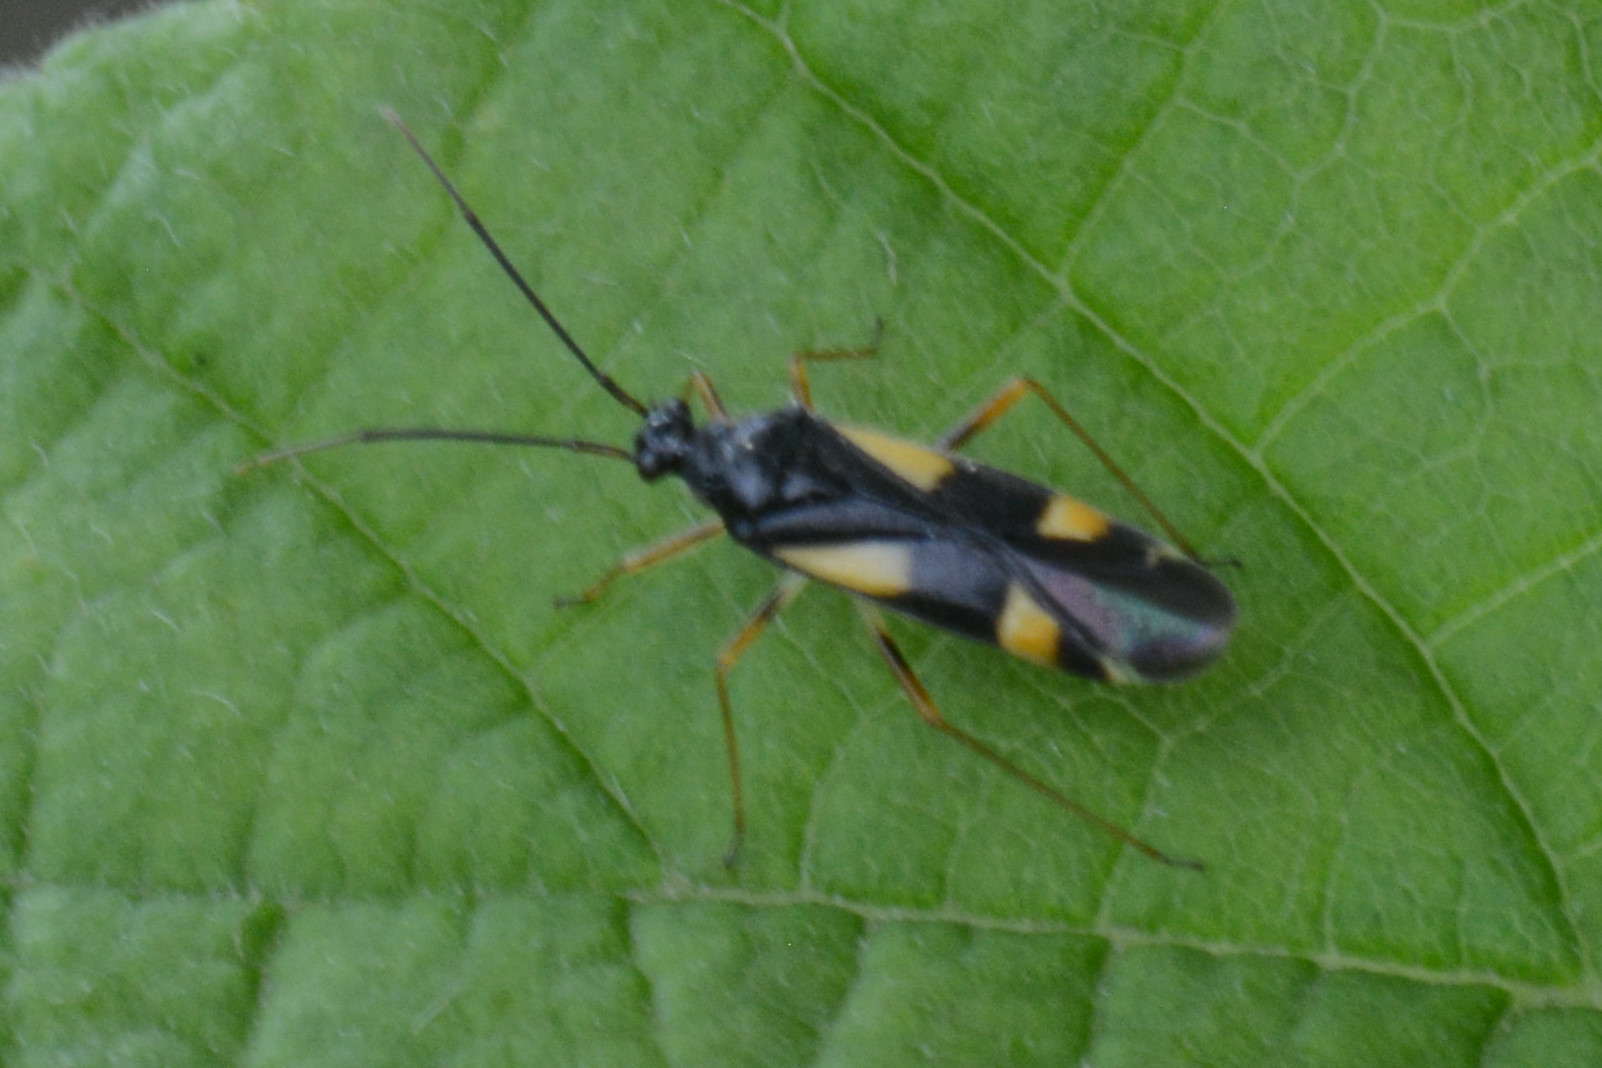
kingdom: Animalia
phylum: Arthropoda
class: Insecta
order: Hemiptera
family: Miridae
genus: Dryophilocoris
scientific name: Dryophilocoris flavoquadrimaculatus
